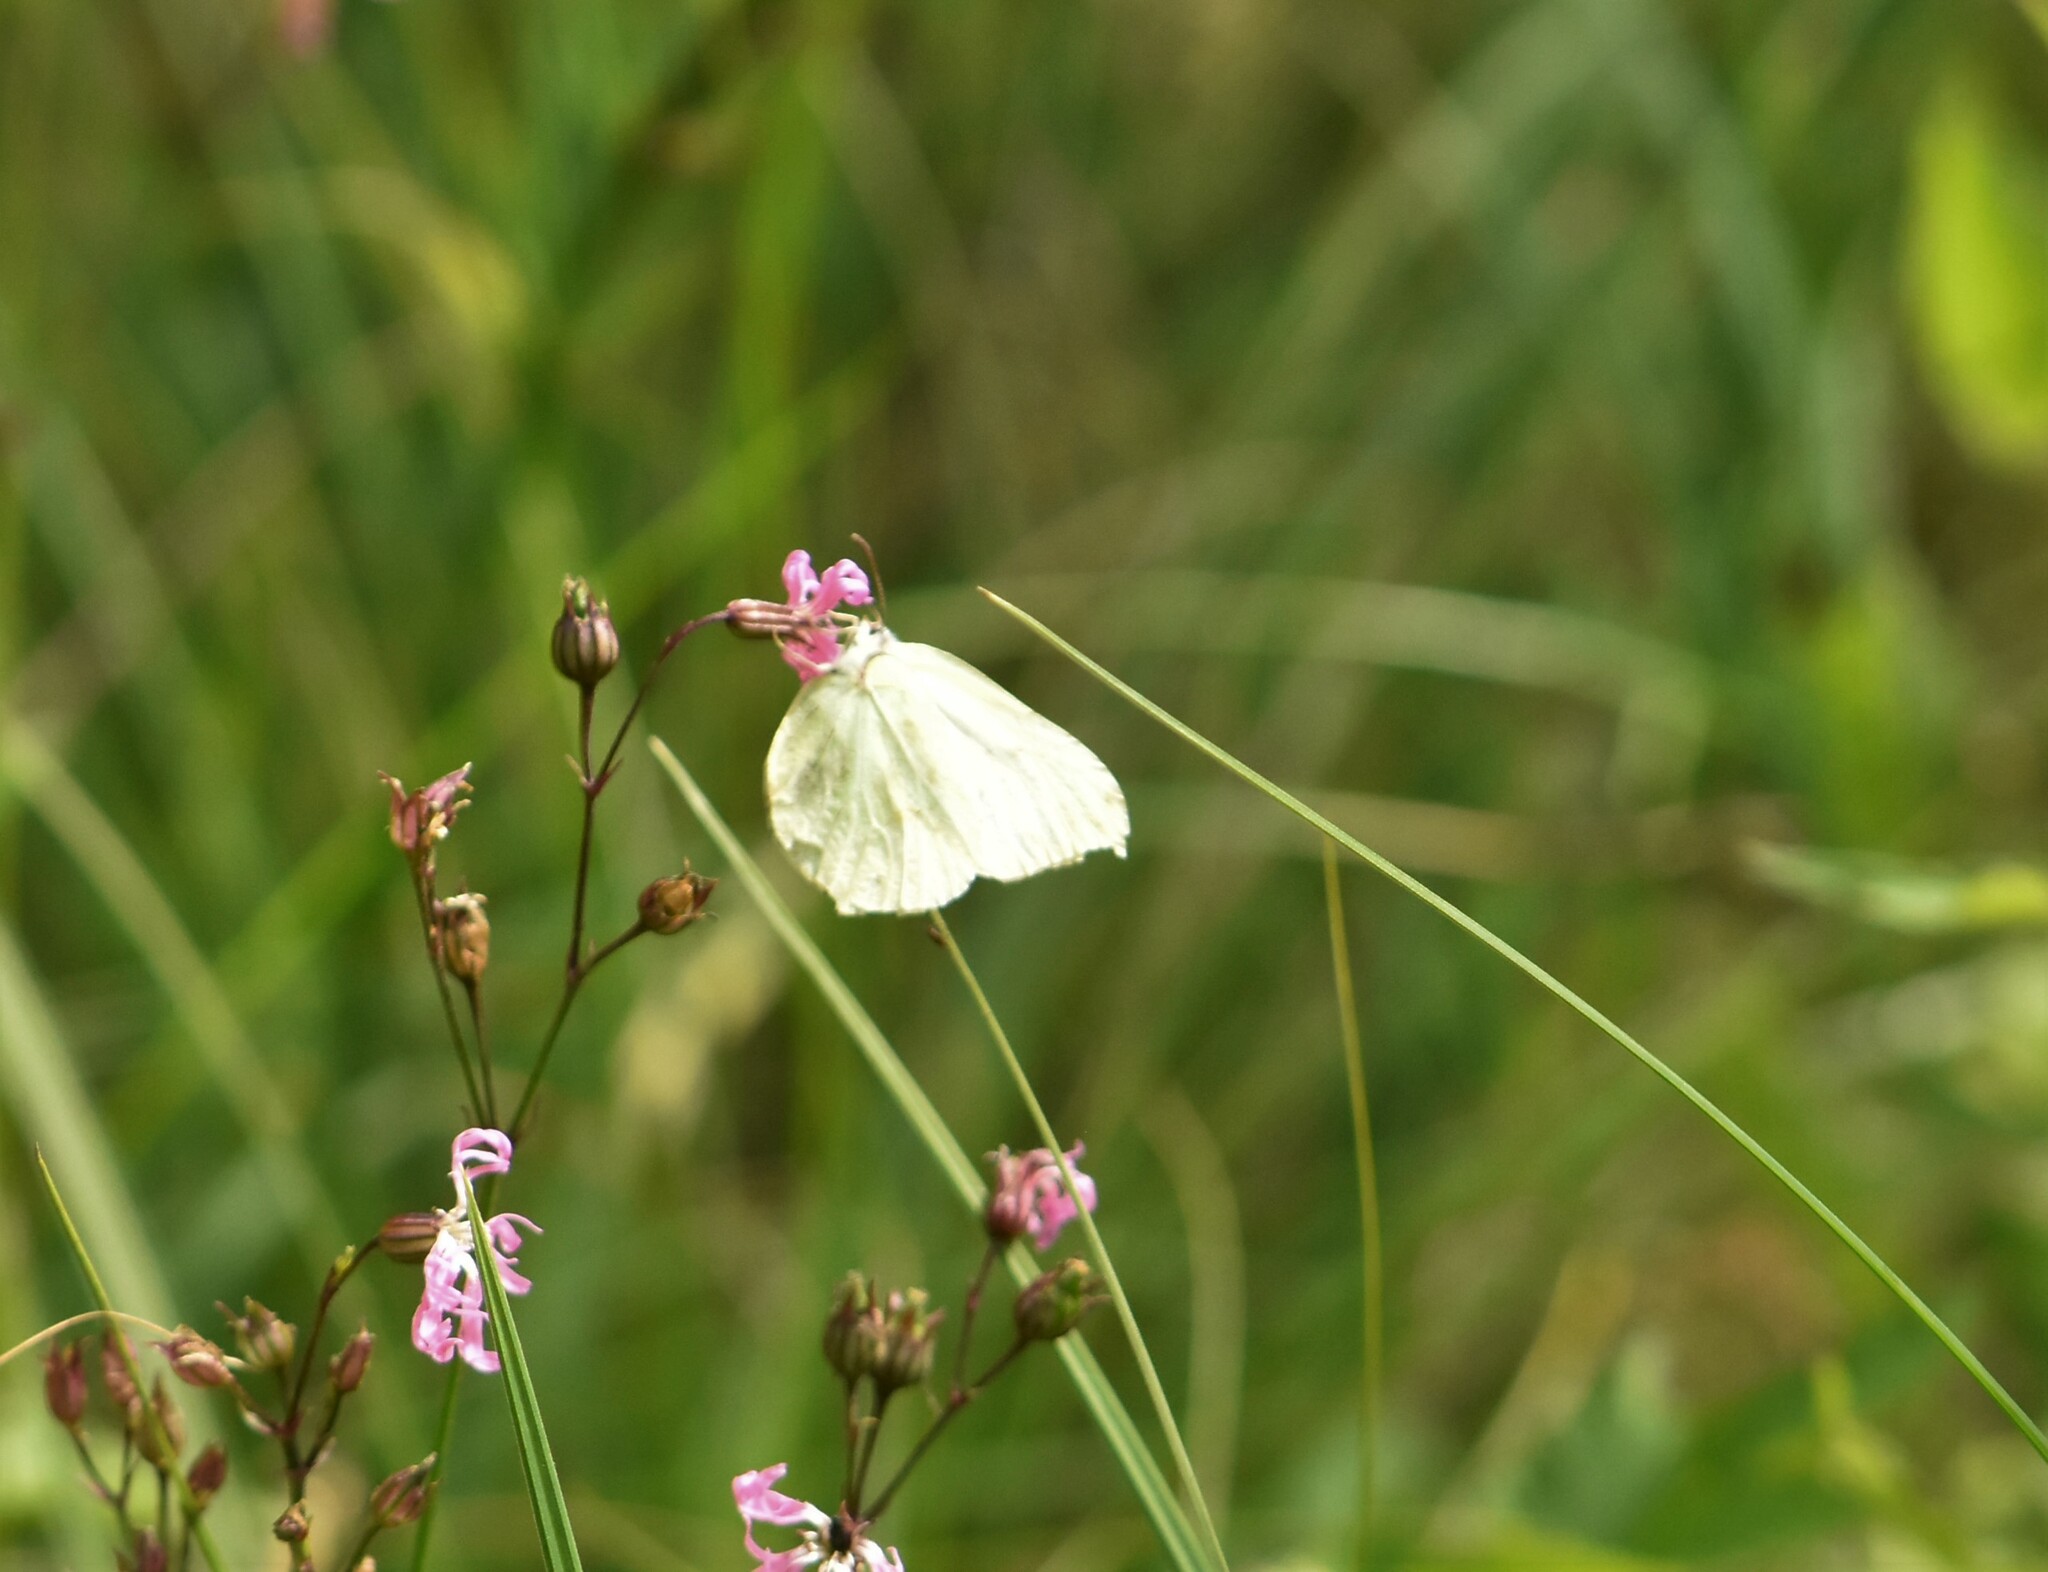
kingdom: Animalia
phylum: Arthropoda
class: Insecta
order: Lepidoptera
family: Pieridae
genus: Gonepteryx
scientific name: Gonepteryx rhamni
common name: Brimstone
